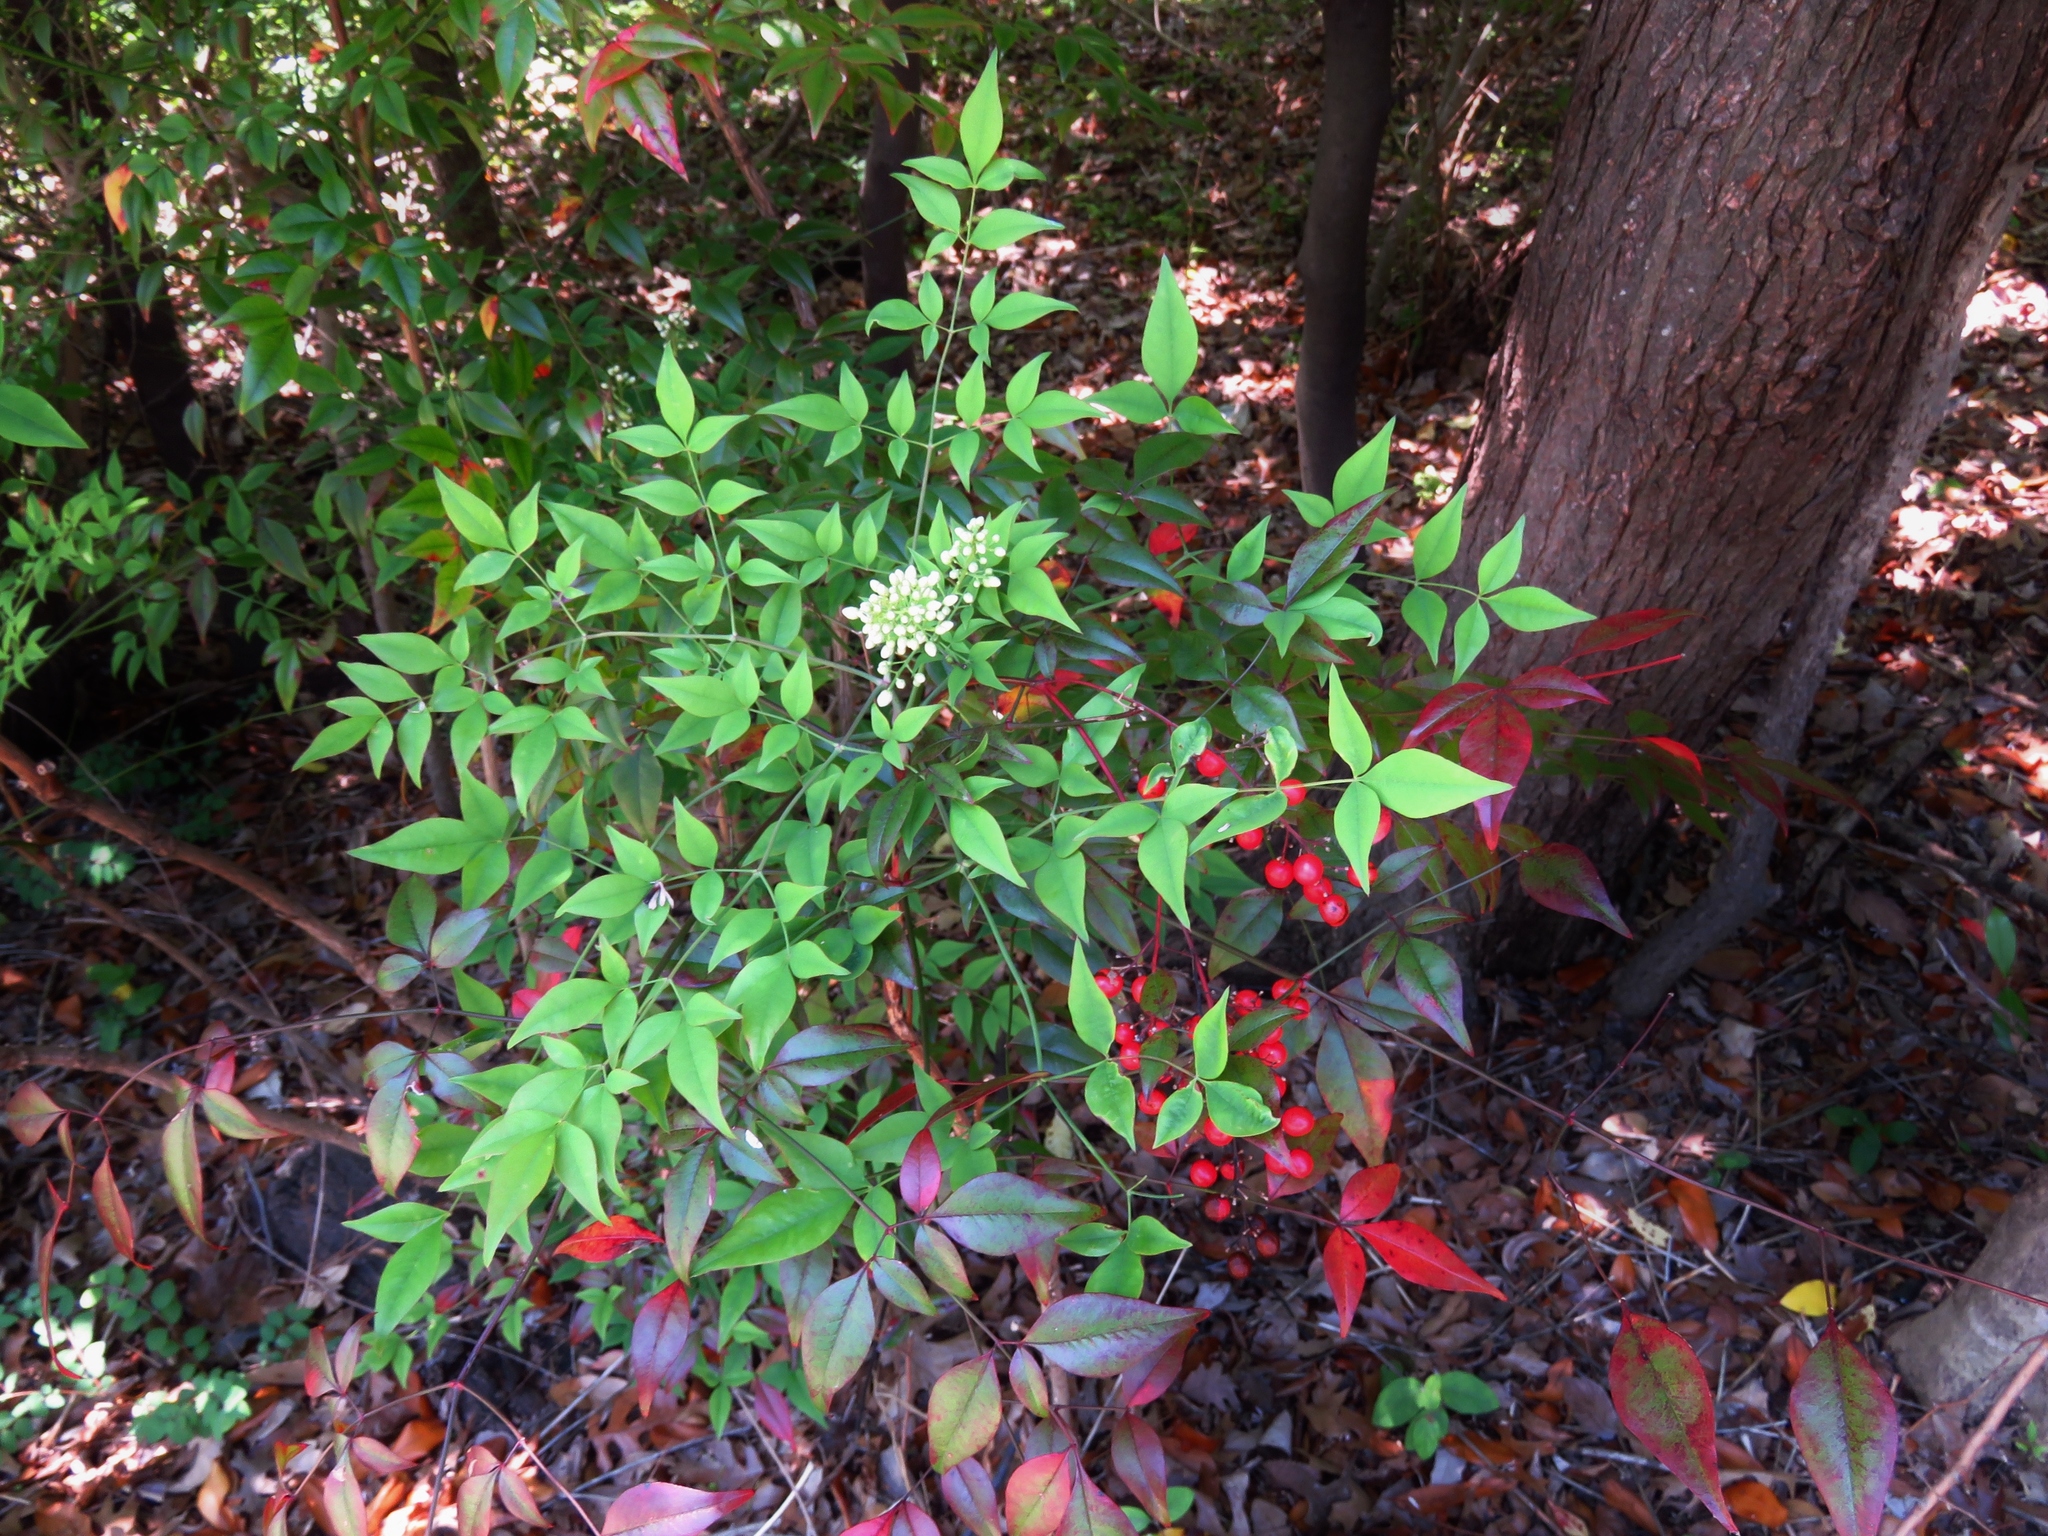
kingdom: Plantae
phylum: Tracheophyta
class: Magnoliopsida
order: Ranunculales
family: Berberidaceae
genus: Nandina
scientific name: Nandina domestica
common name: Sacred bamboo
